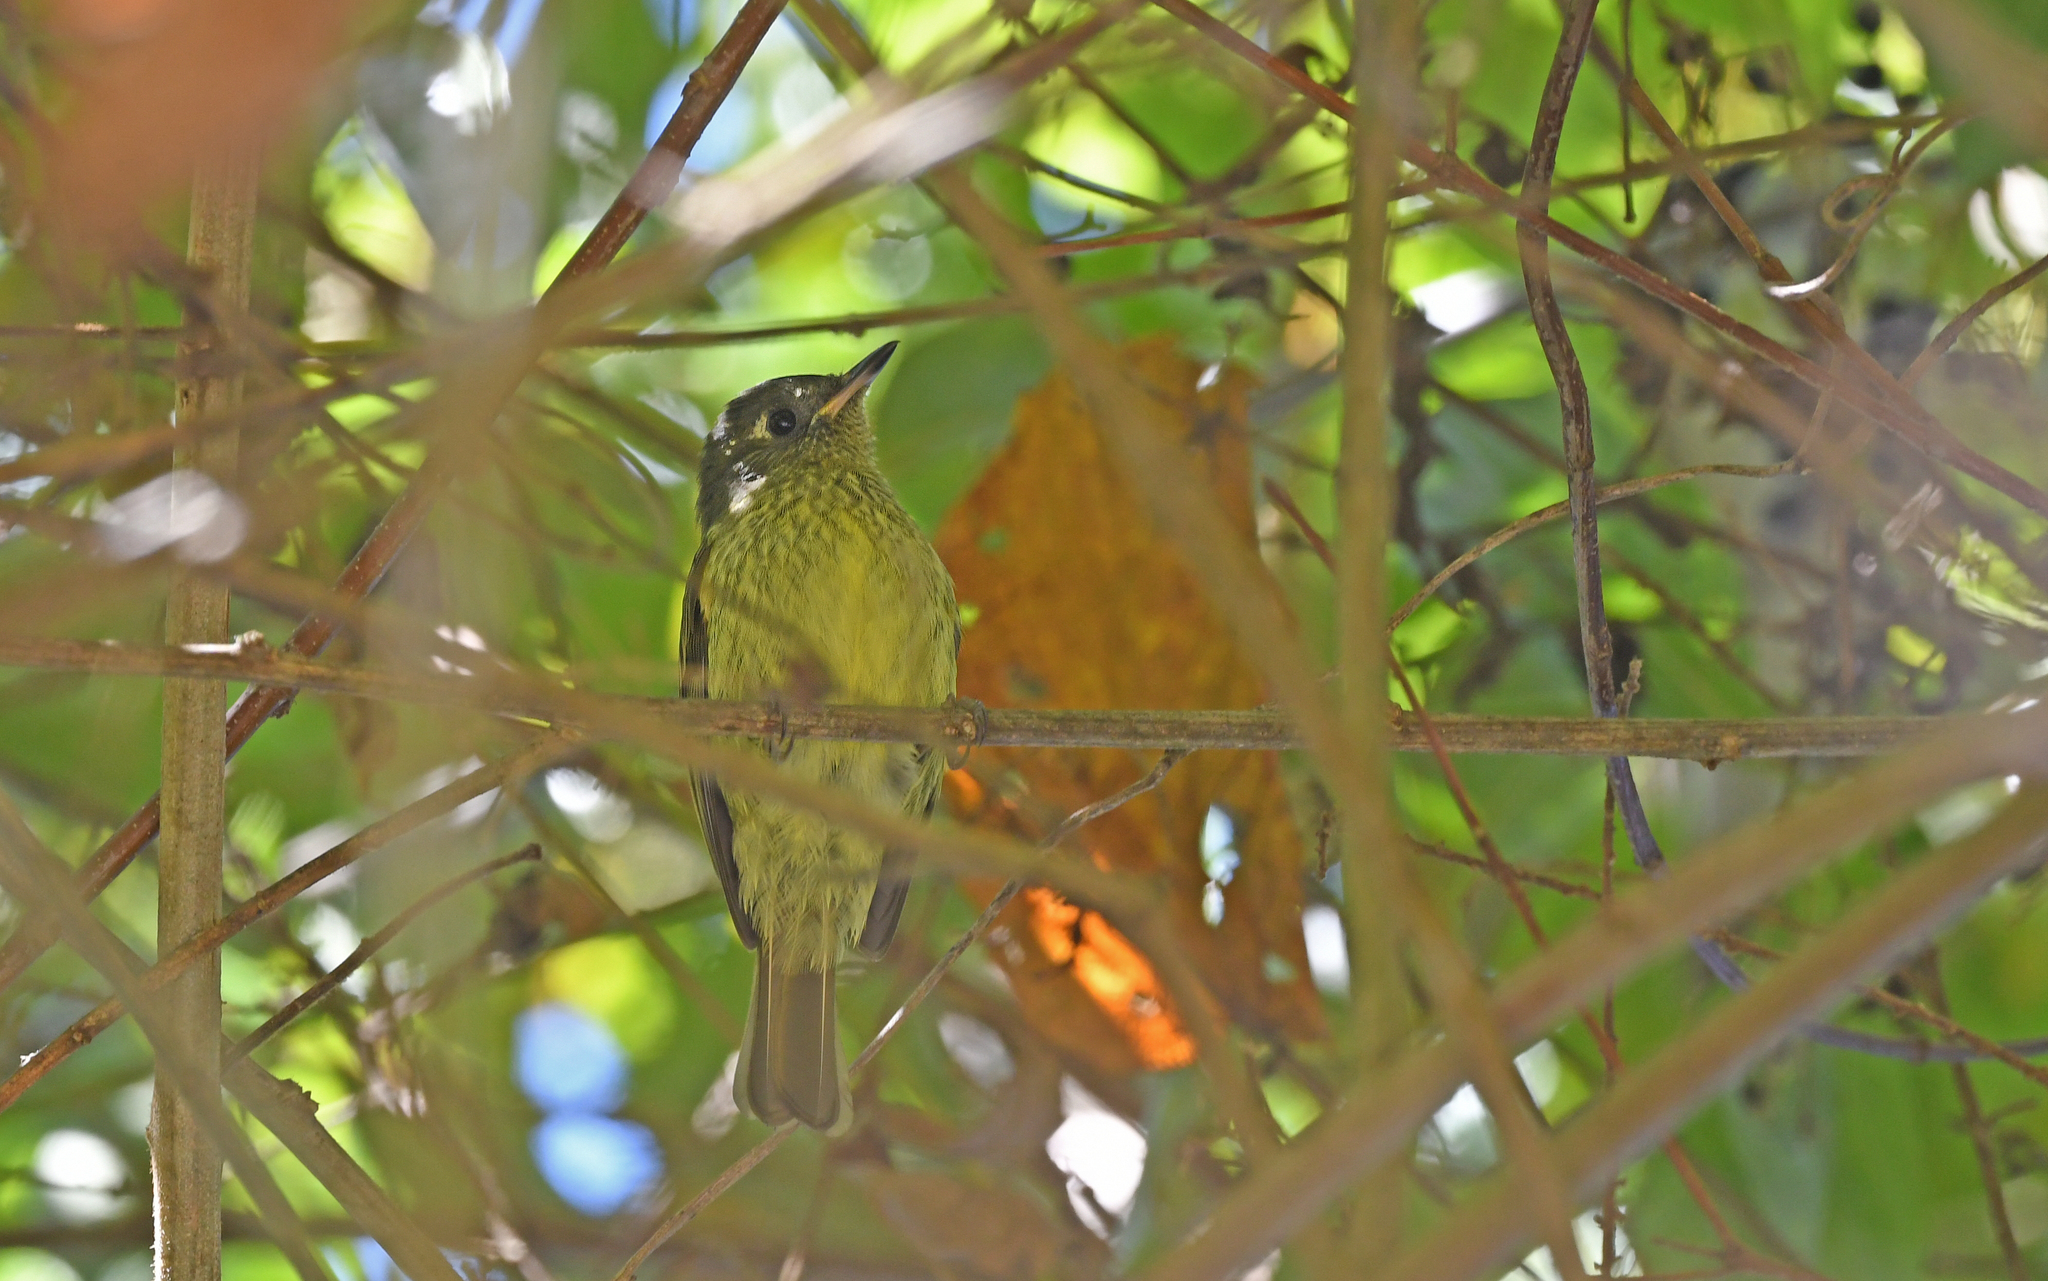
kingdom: Animalia
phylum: Chordata
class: Aves
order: Passeriformes
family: Tyrannidae
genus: Mionectes
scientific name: Mionectes galbinus
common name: Olive-striped flycatcher
